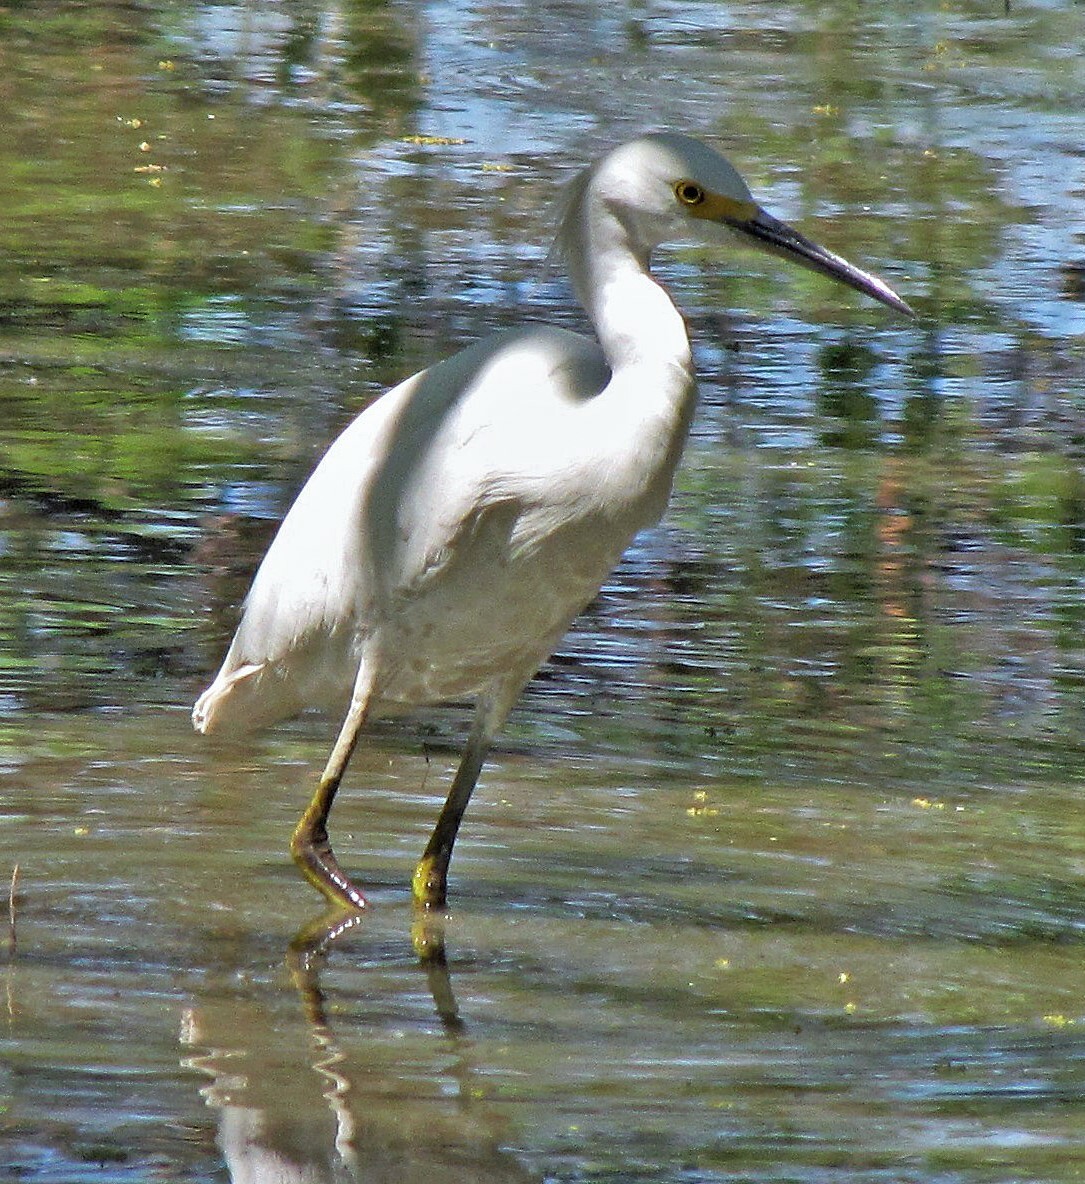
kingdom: Animalia
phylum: Chordata
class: Aves
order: Pelecaniformes
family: Ardeidae
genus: Egretta
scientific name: Egretta thula
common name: Snowy egret
